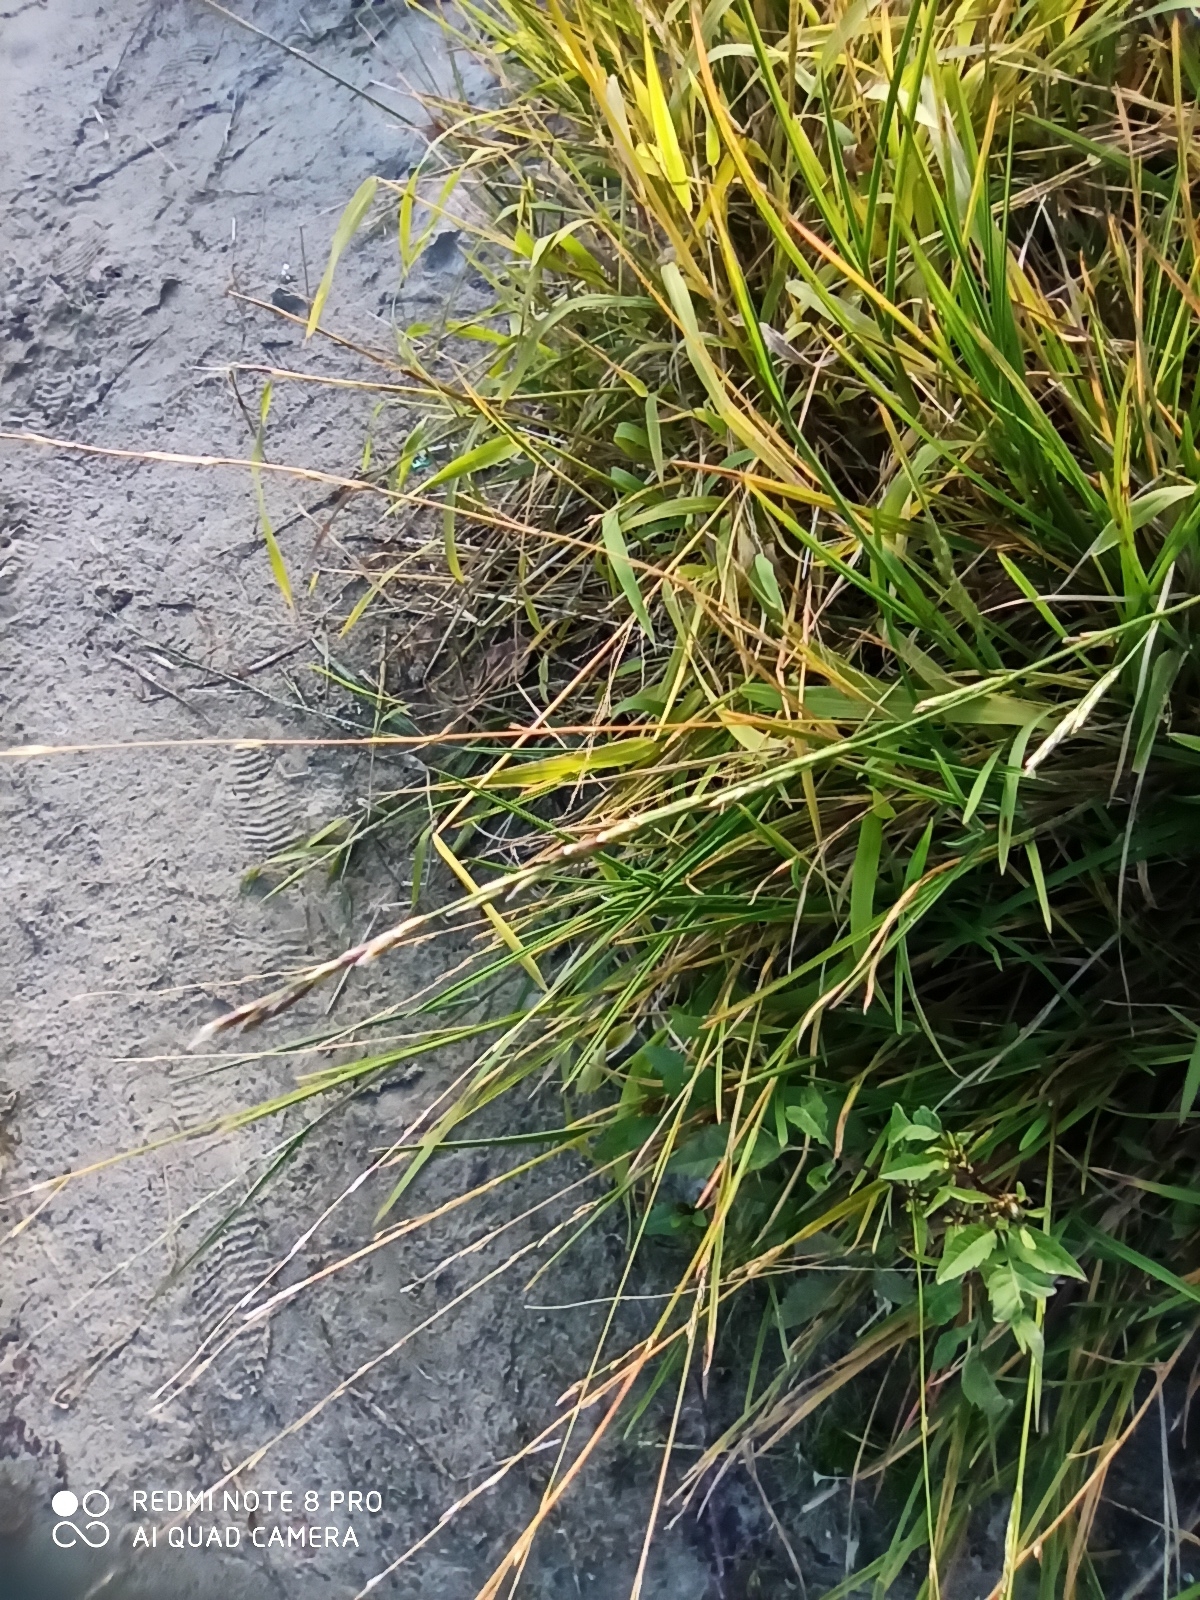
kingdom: Plantae
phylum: Tracheophyta
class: Liliopsida
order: Poales
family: Poaceae
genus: Glyceria
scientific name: Glyceria fluitans
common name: Floating sweet-grass
